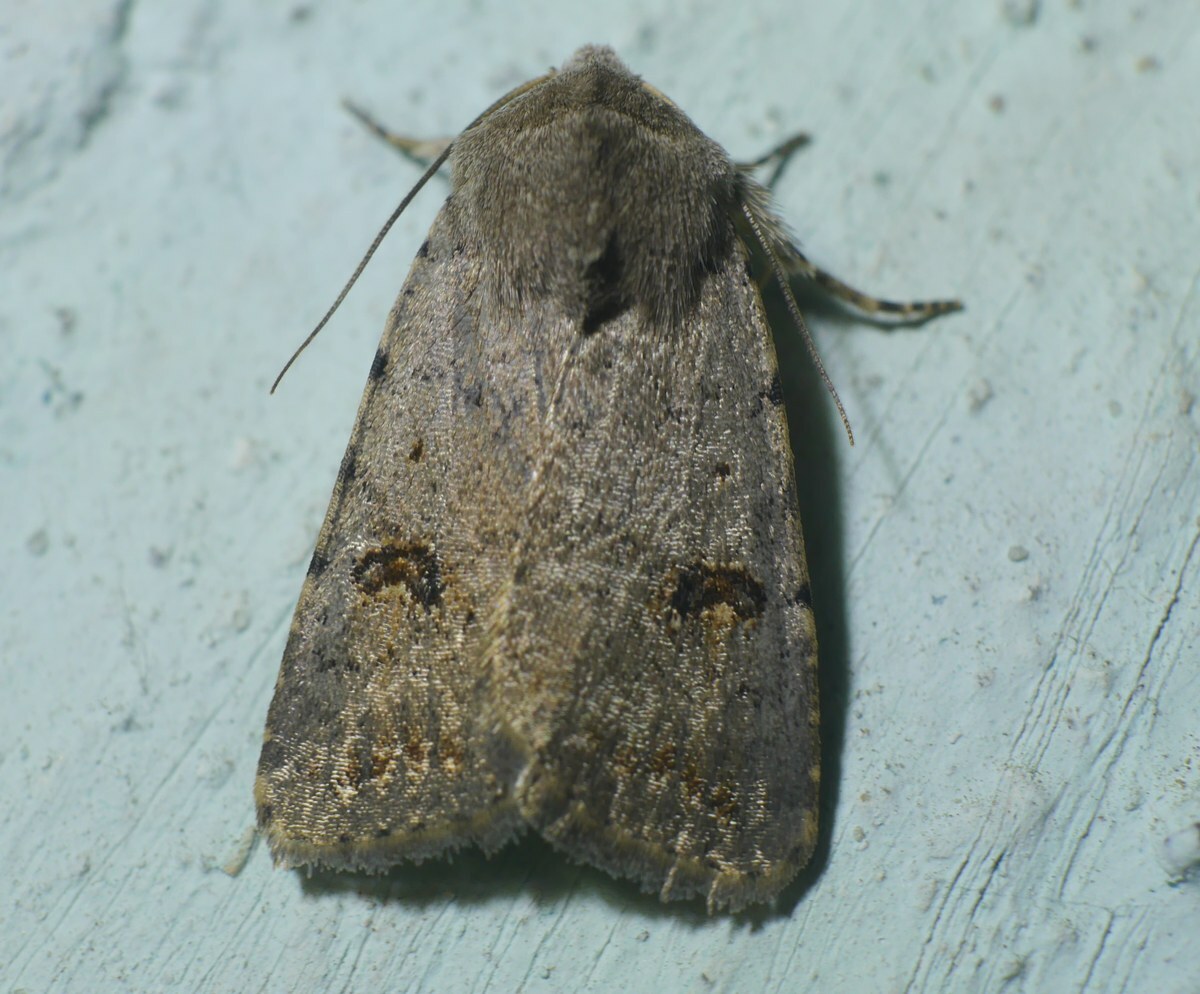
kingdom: Animalia
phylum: Arthropoda
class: Insecta
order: Lepidoptera
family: Noctuidae
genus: Caradrina
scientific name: Caradrina kadenii
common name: Clancy's rustic
